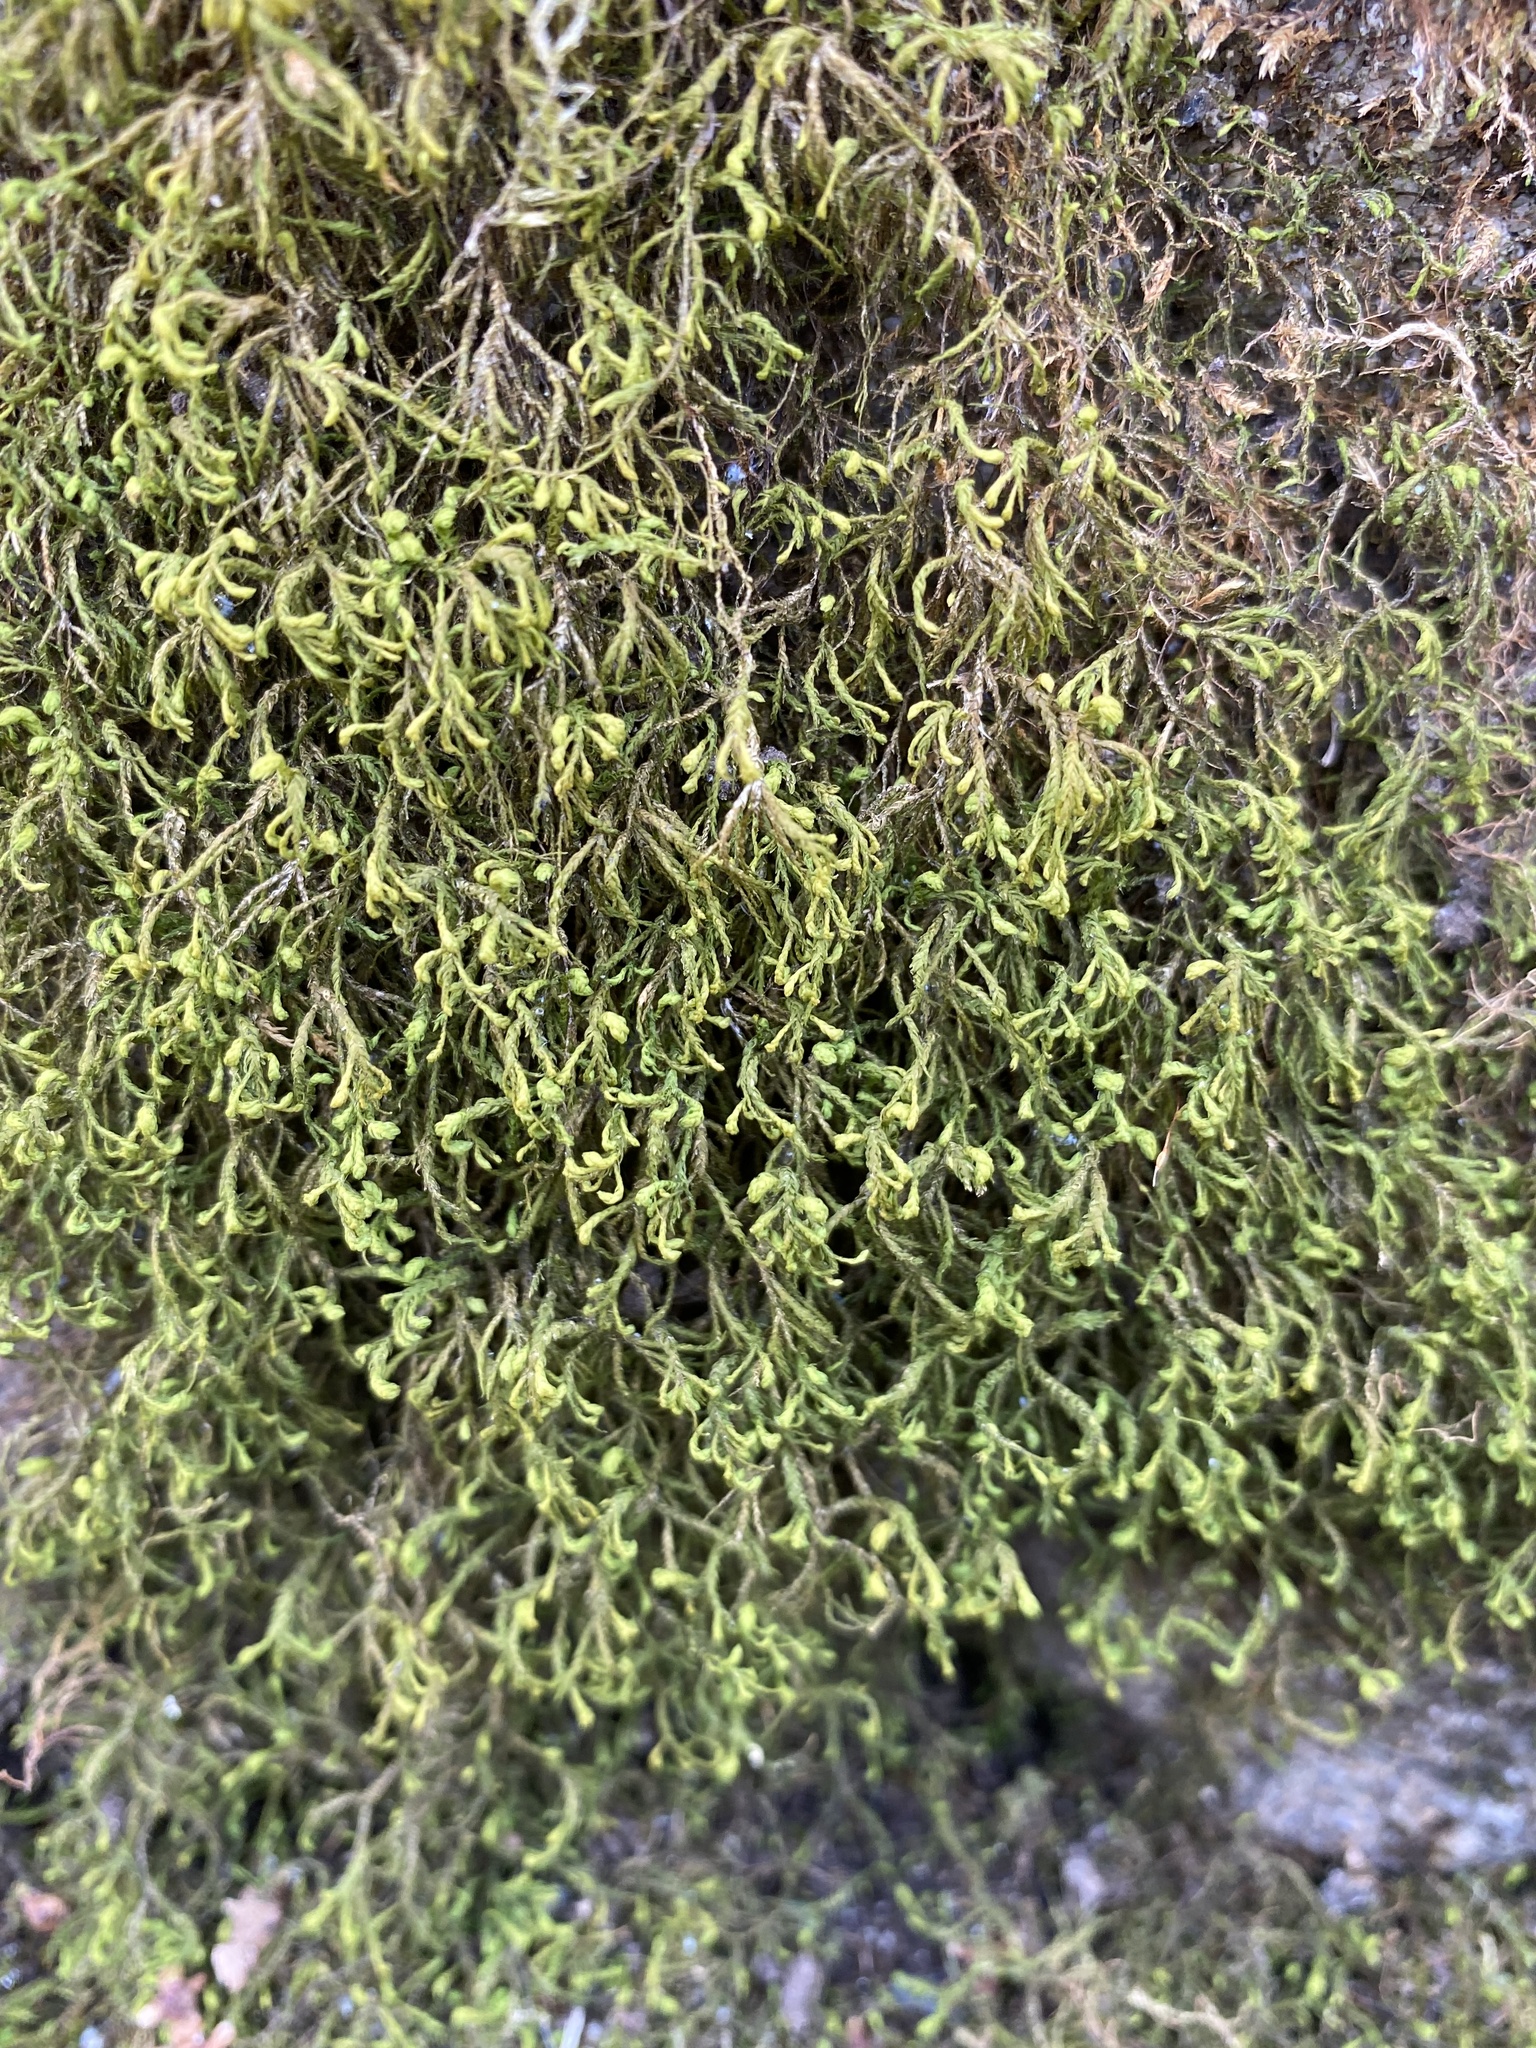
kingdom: Plantae
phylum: Bryophyta
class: Bryopsida
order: Hypnales
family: Neckeraceae
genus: Pseudanomodon
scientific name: Pseudanomodon attenuatus
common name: Tree-skirt moss
